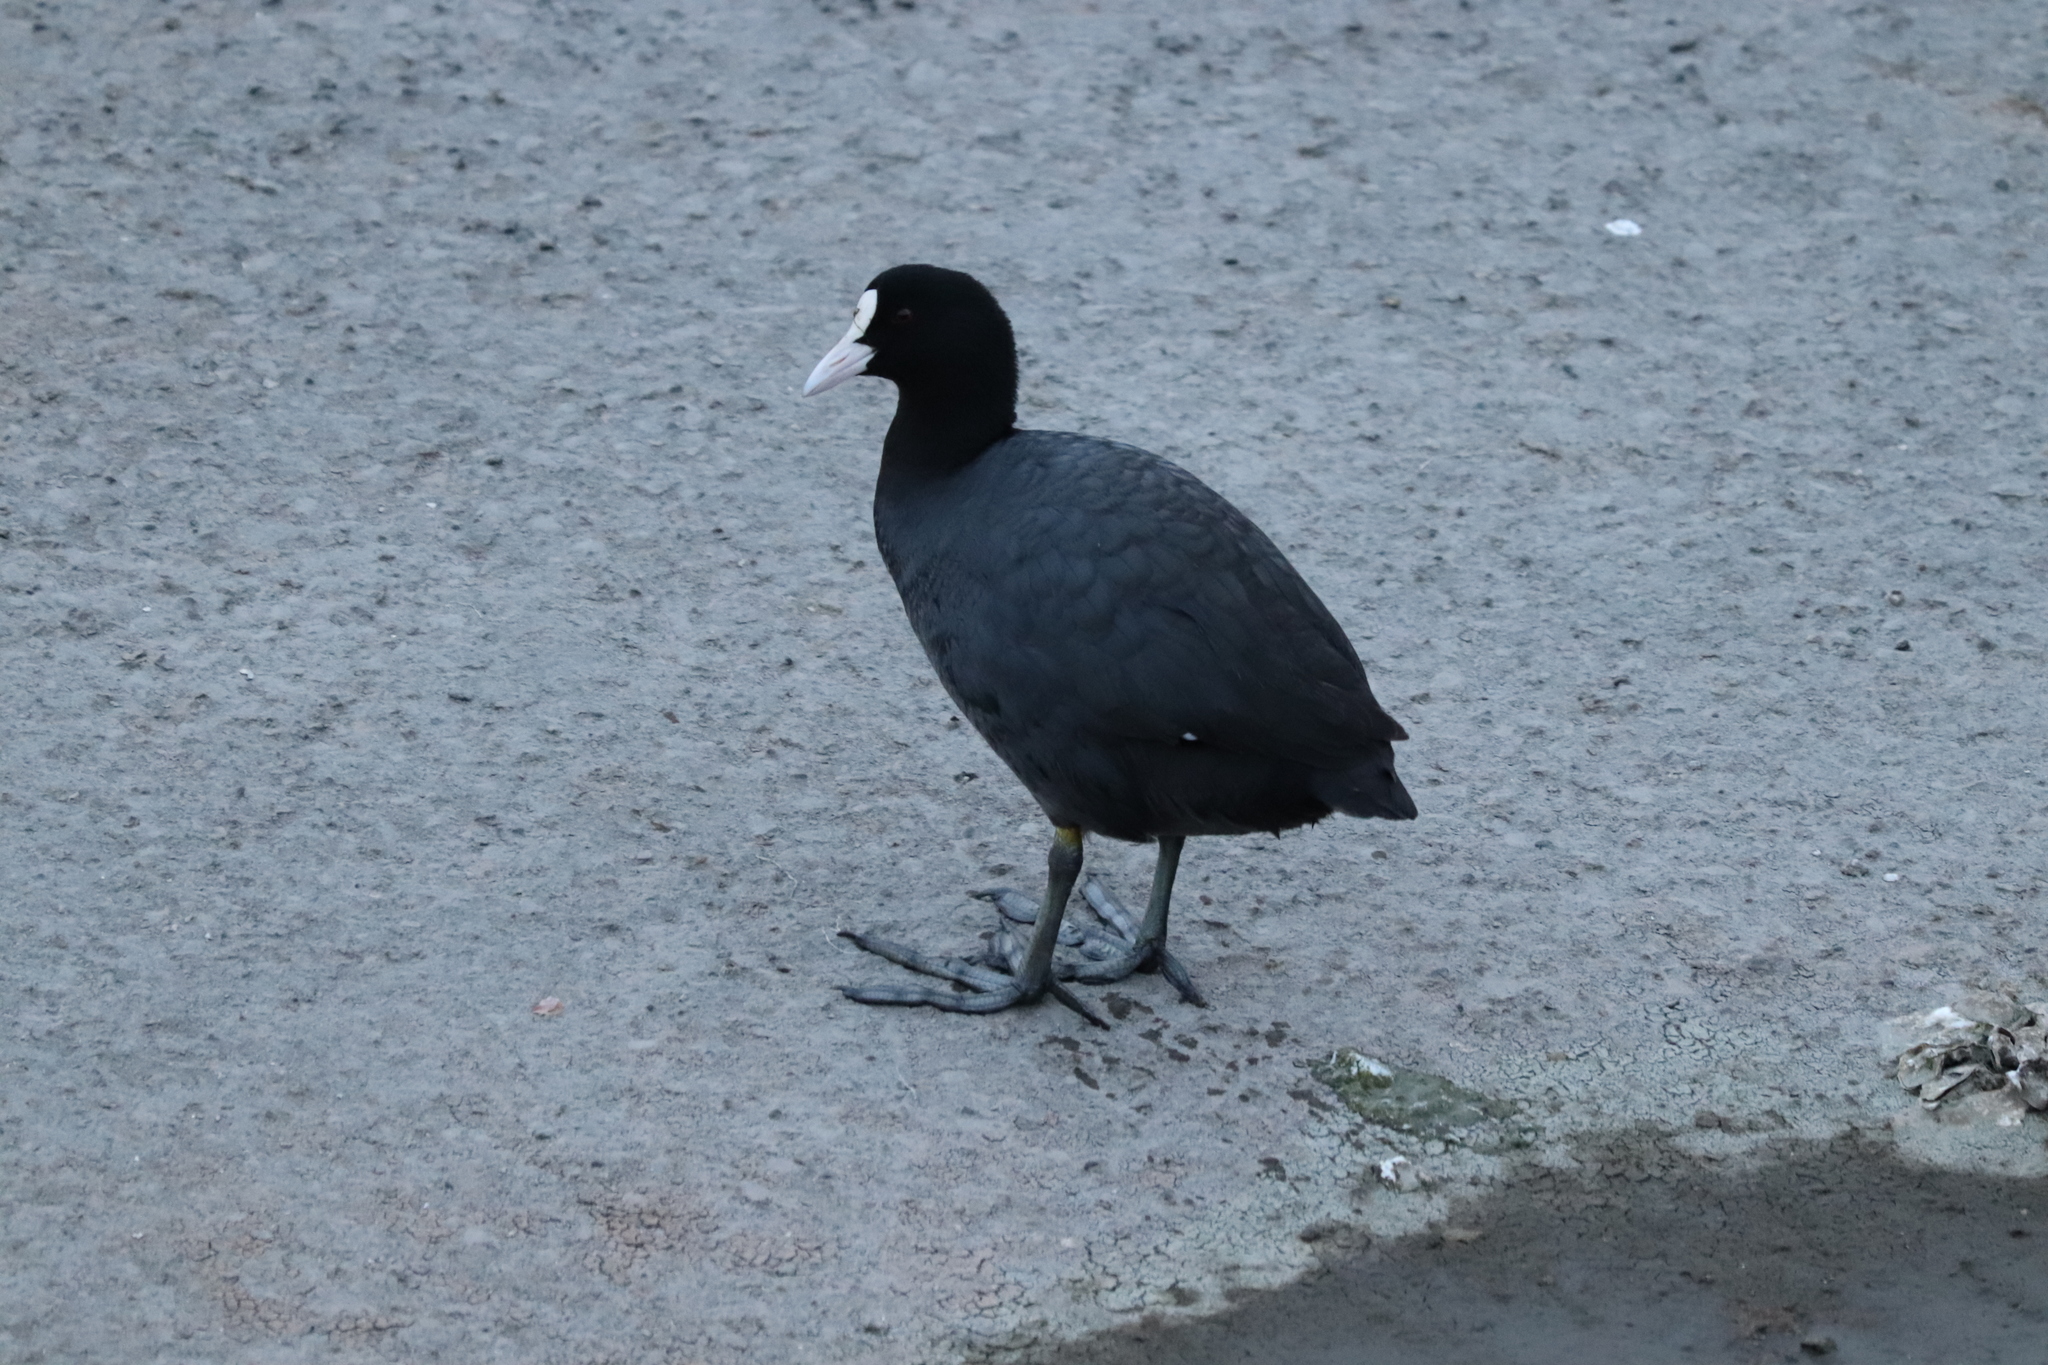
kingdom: Animalia
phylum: Chordata
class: Aves
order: Gruiformes
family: Rallidae
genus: Fulica
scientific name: Fulica atra
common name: Eurasian coot
